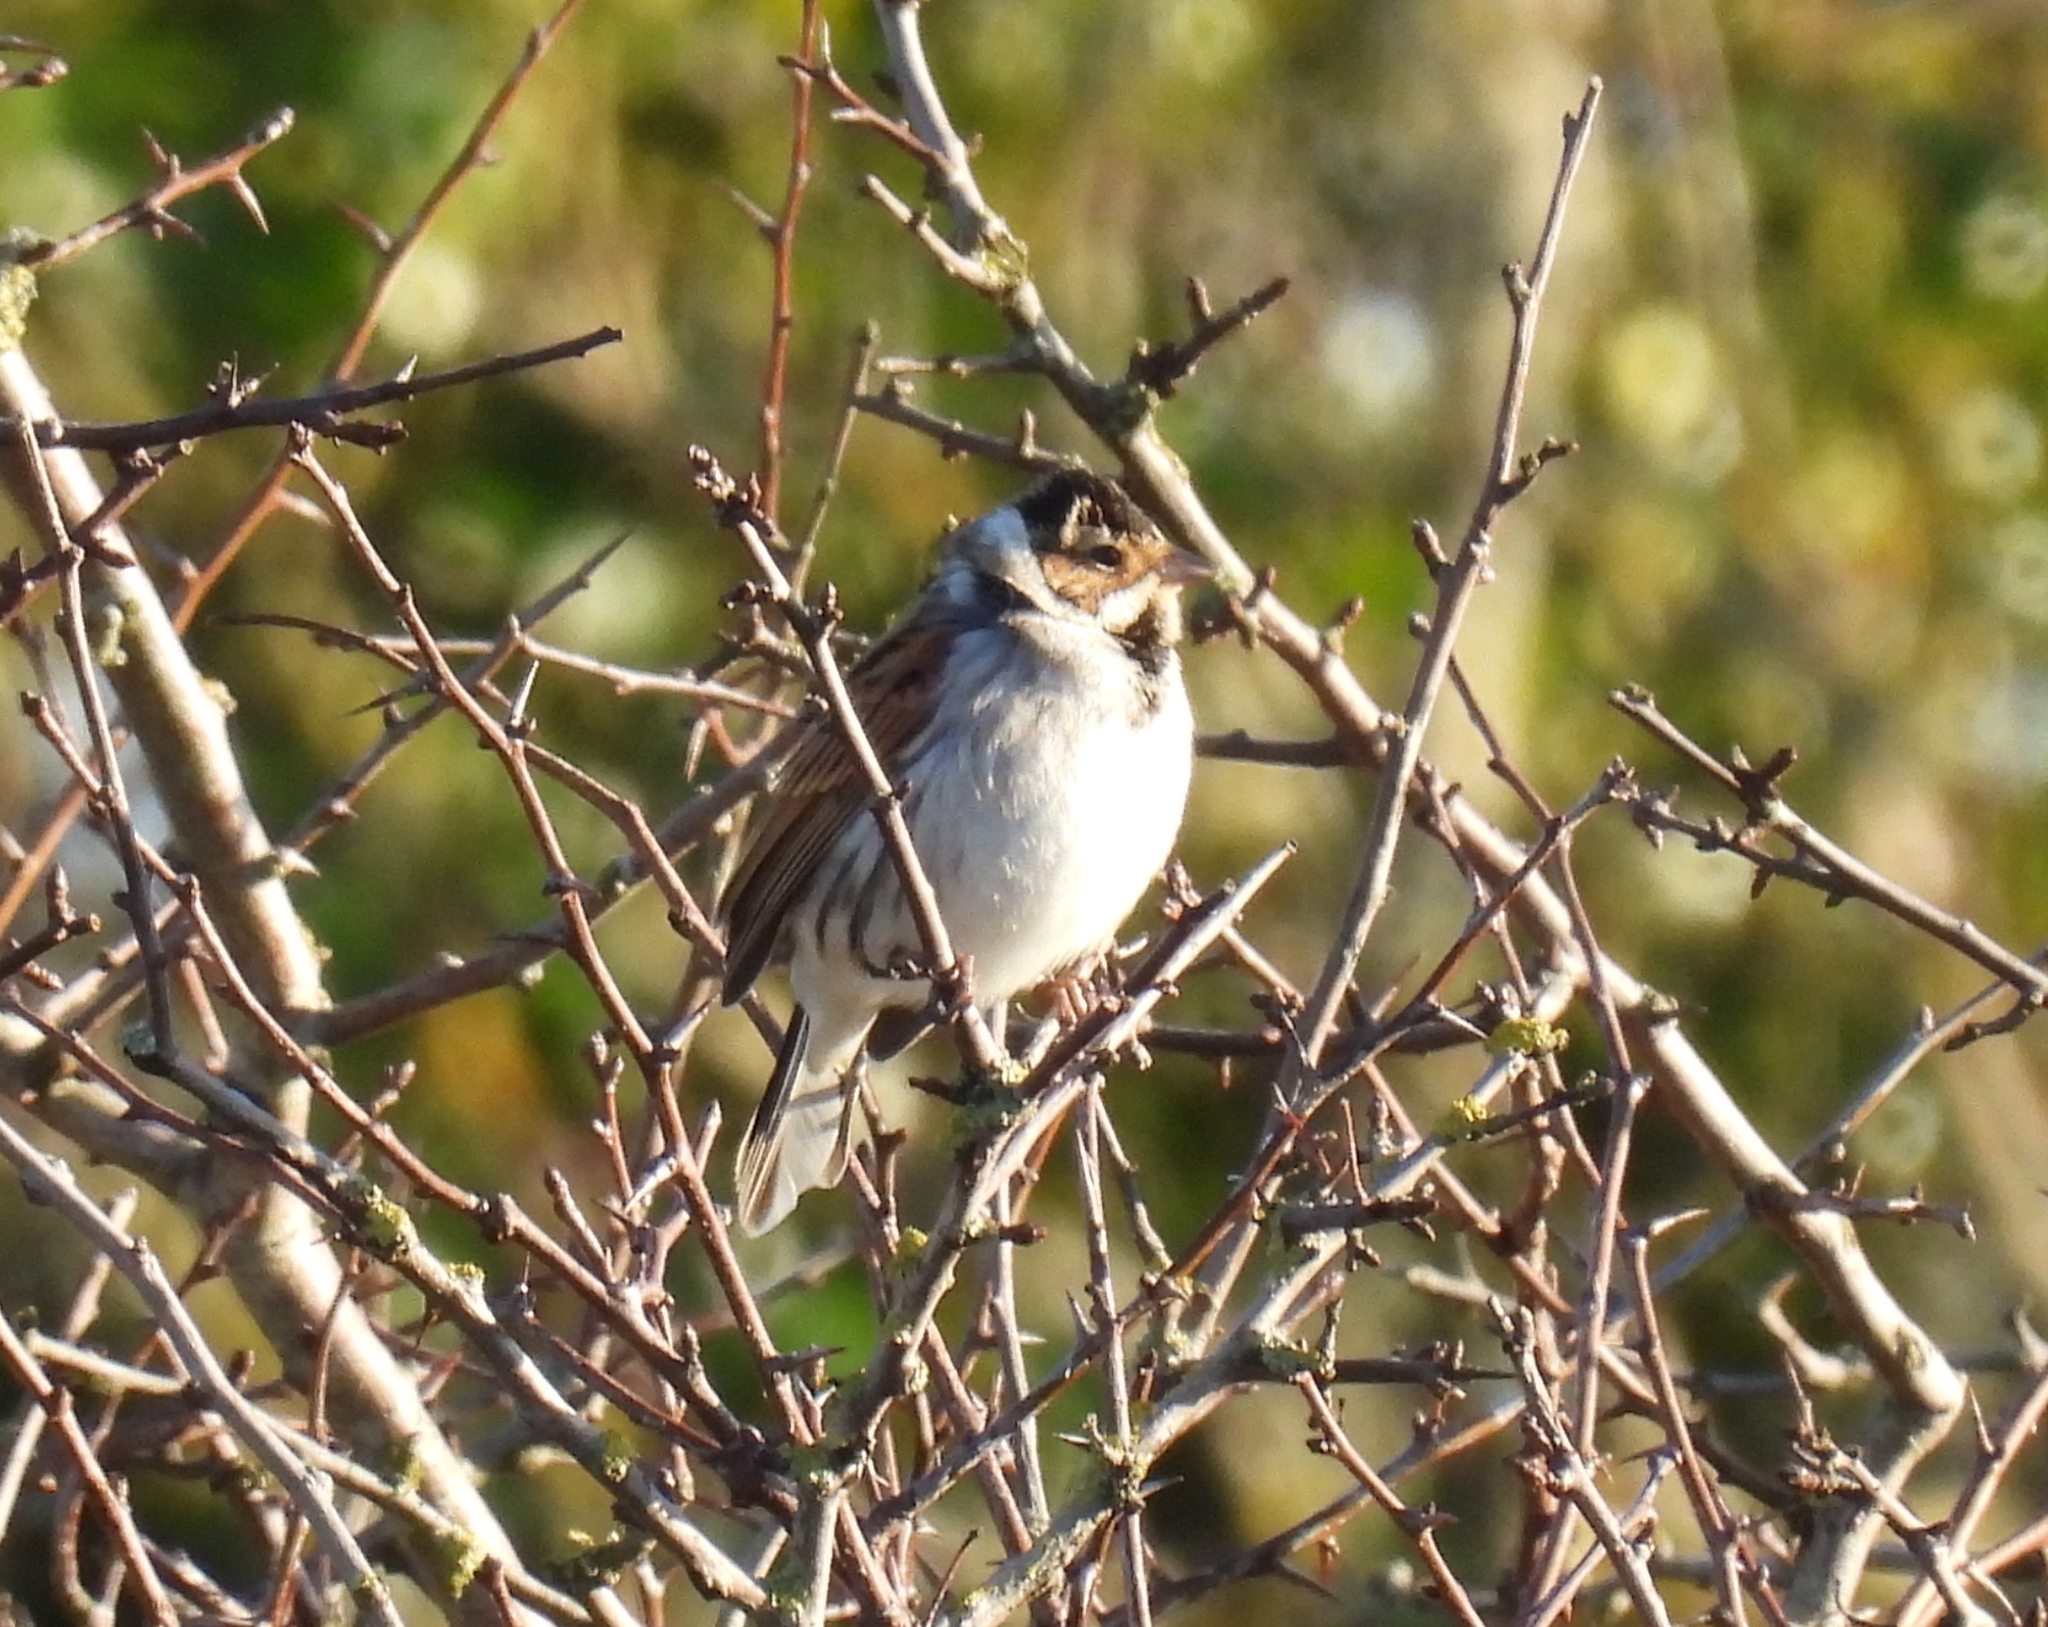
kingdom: Animalia
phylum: Chordata
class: Aves
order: Passeriformes
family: Emberizidae
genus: Emberiza
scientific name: Emberiza schoeniclus
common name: Reed bunting
